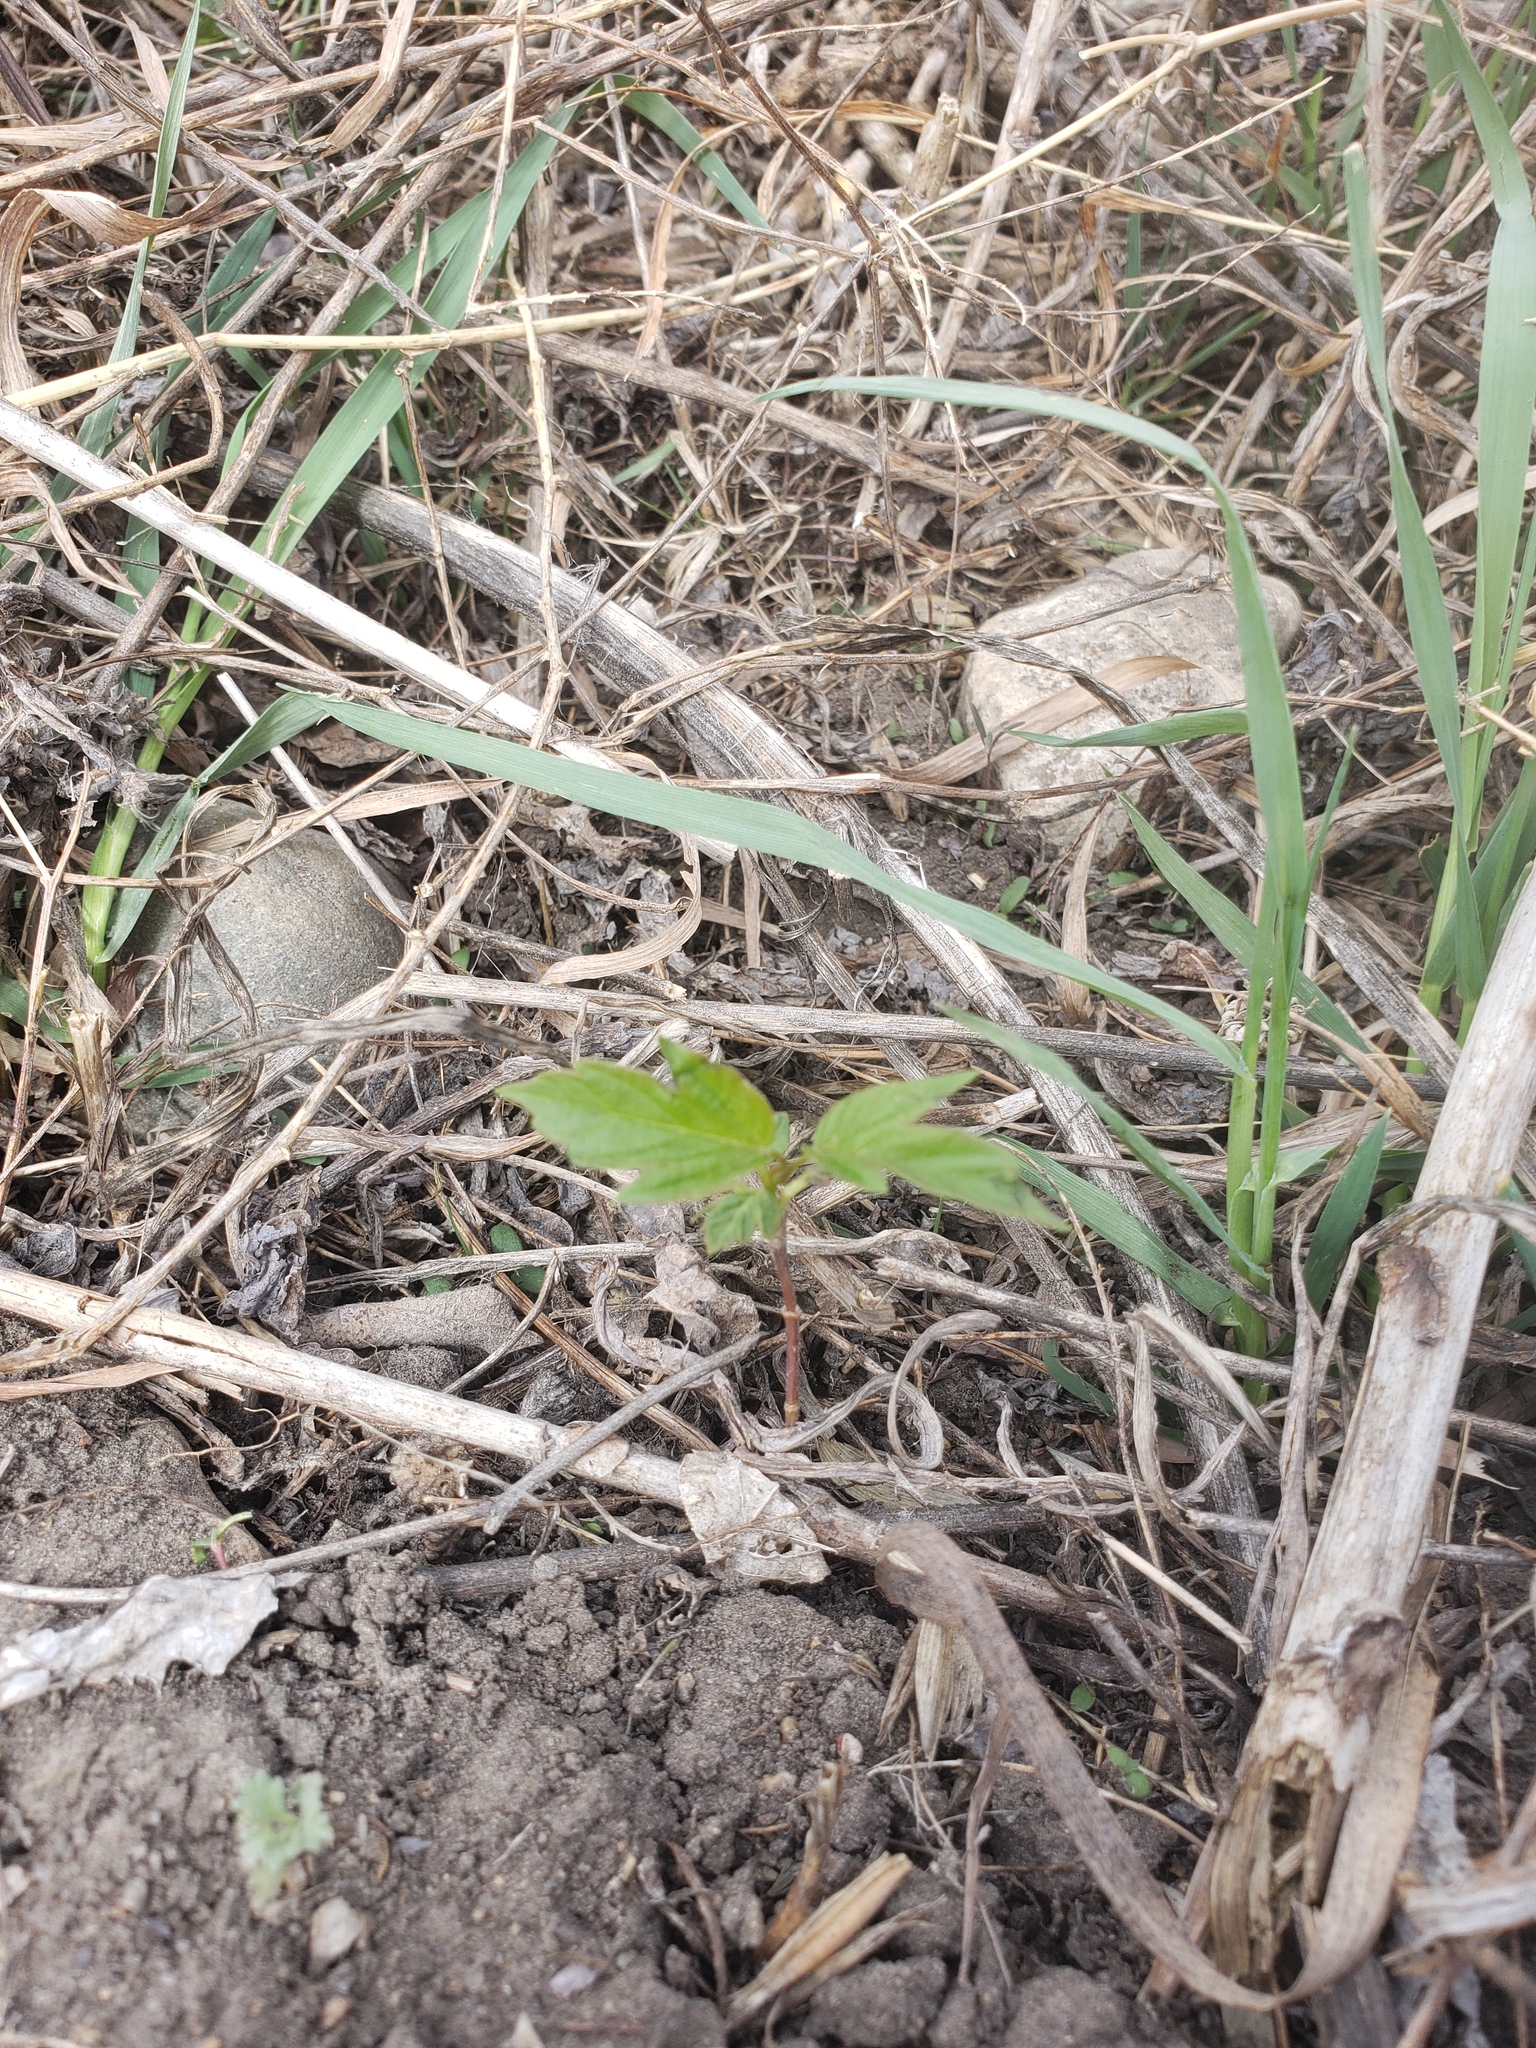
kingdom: Plantae
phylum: Tracheophyta
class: Magnoliopsida
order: Sapindales
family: Sapindaceae
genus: Acer
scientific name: Acer negundo
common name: Ashleaf maple
